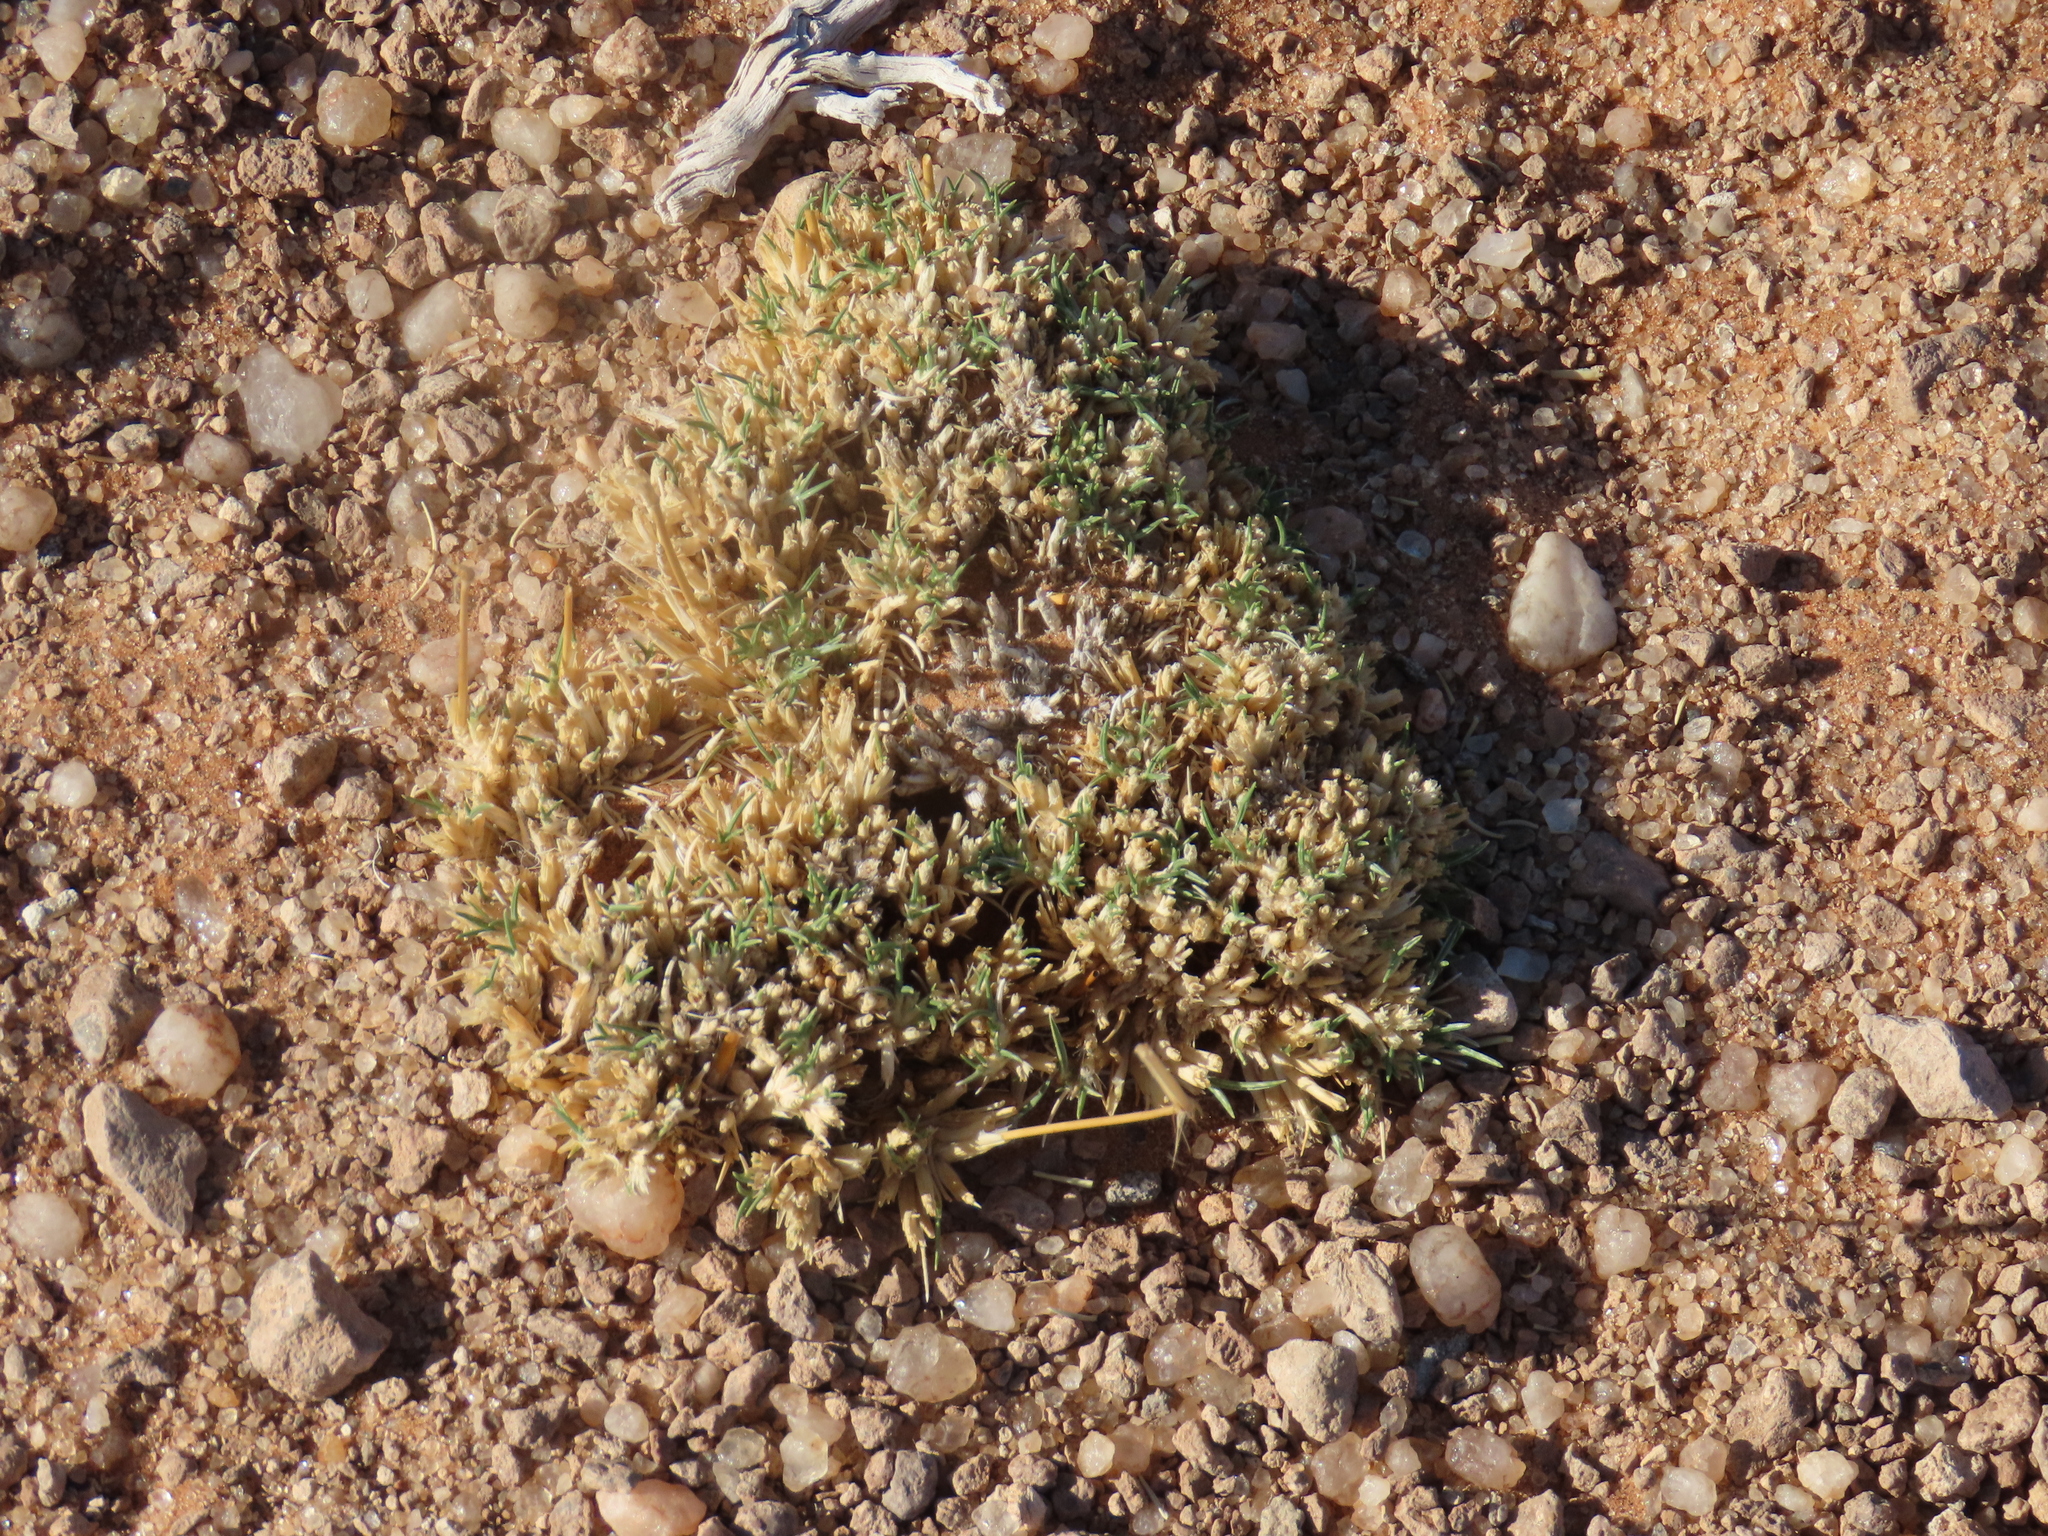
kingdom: Plantae
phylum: Tracheophyta
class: Liliopsida
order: Poales
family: Poaceae
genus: Stipagrostis
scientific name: Stipagrostis ciliata
